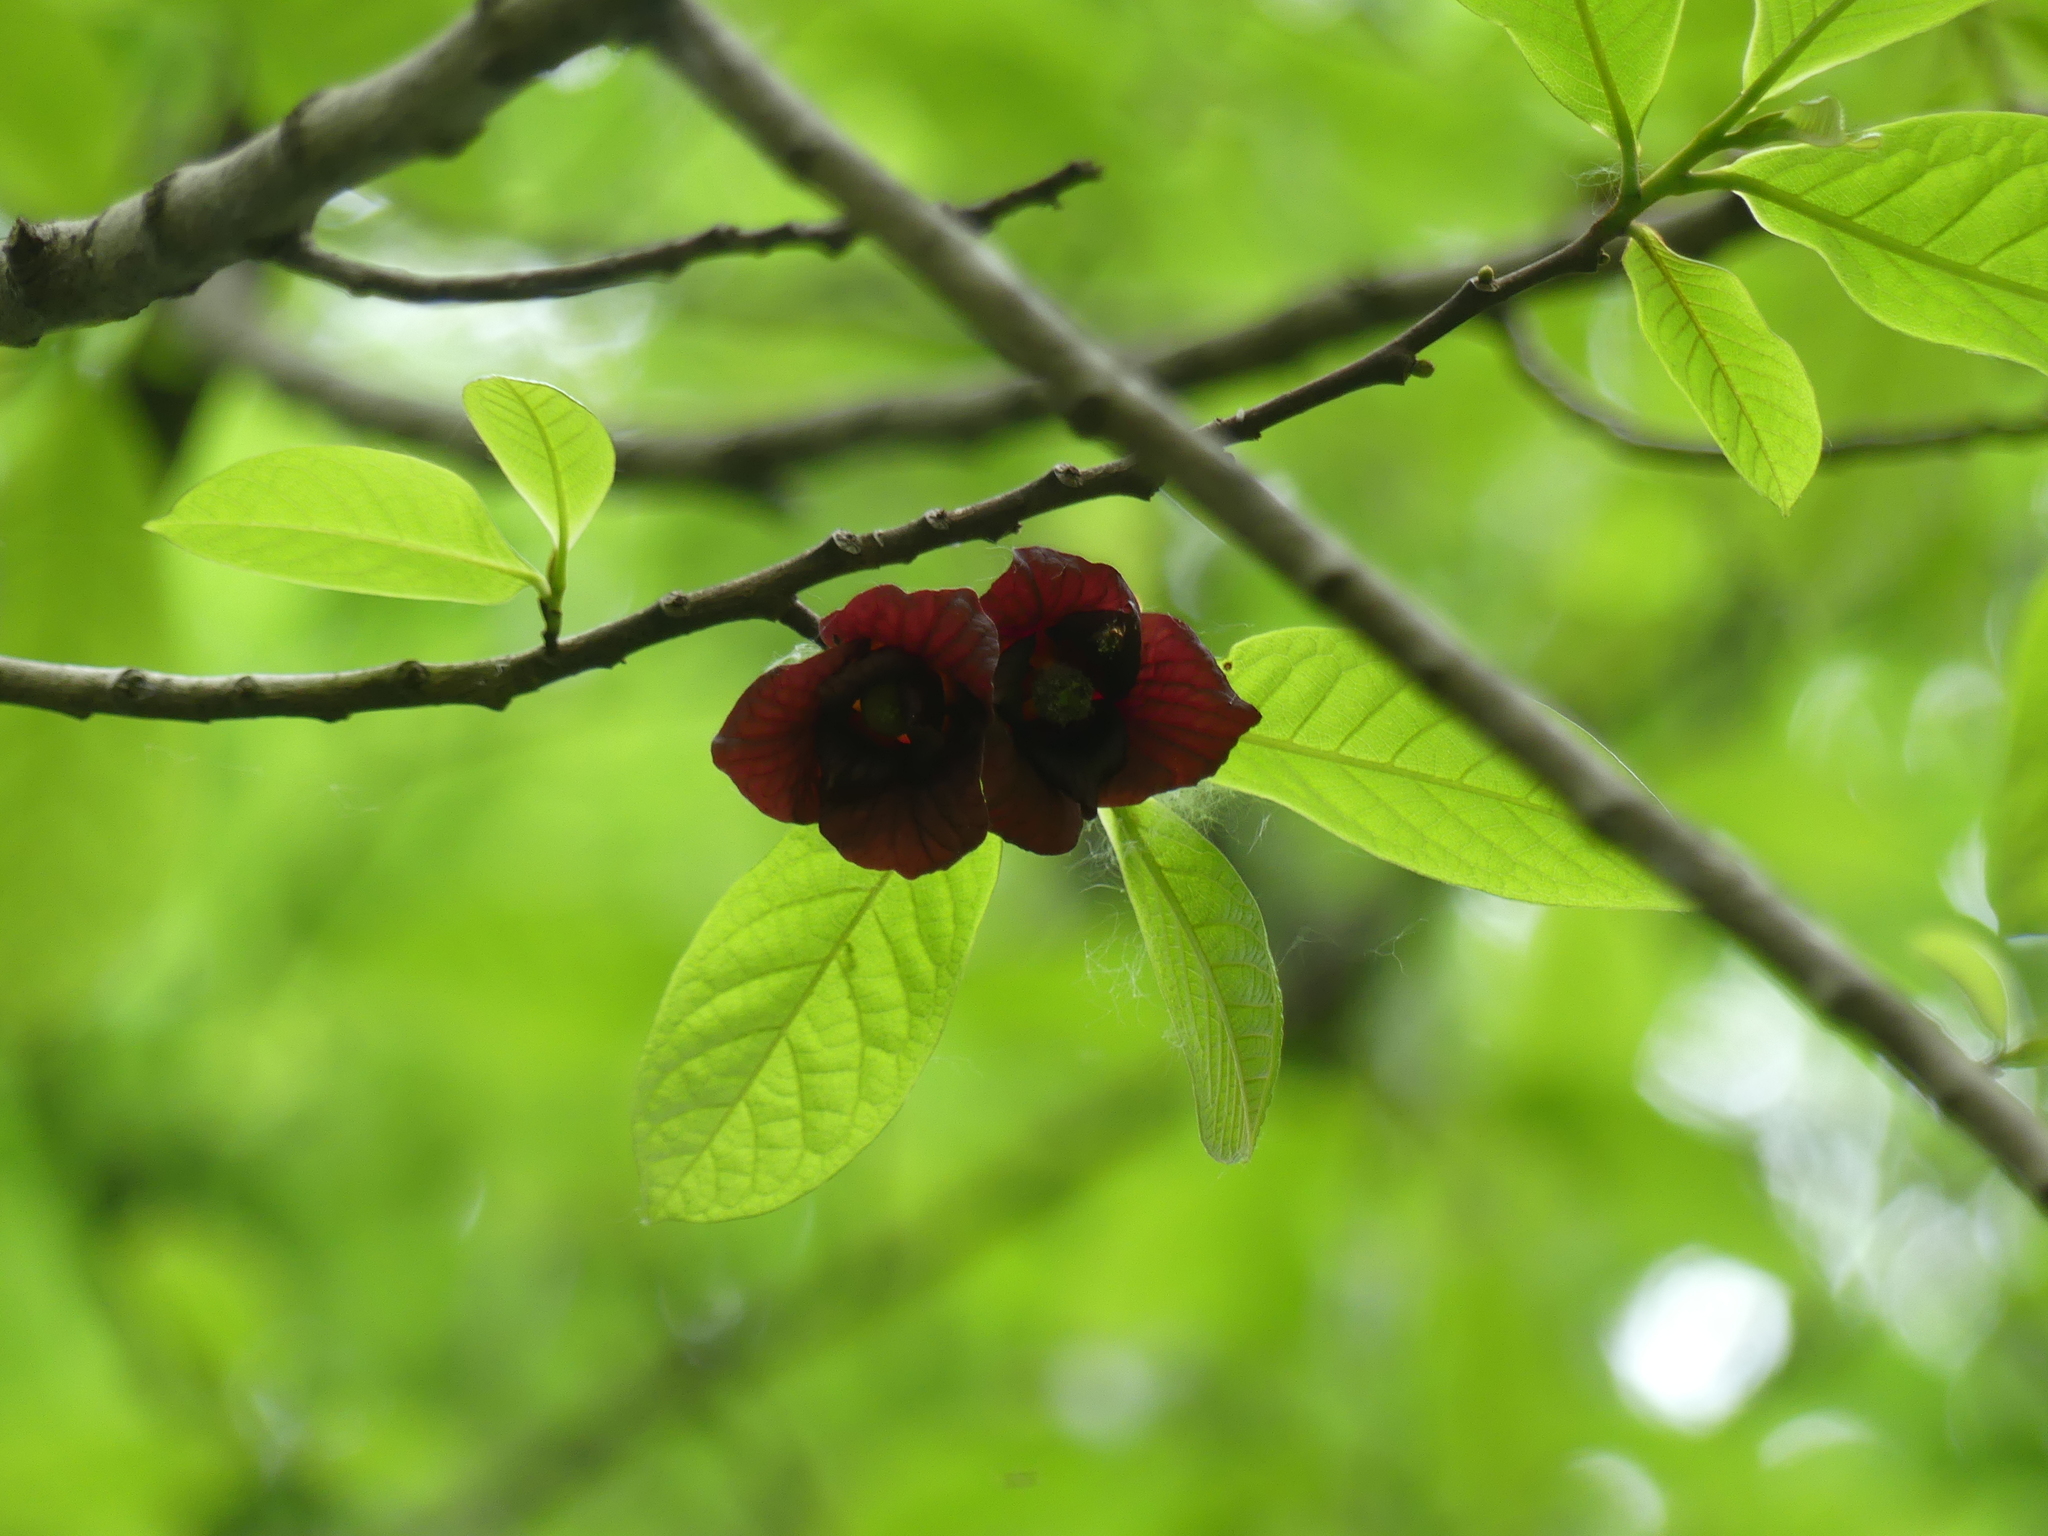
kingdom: Plantae
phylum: Tracheophyta
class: Magnoliopsida
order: Magnoliales
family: Annonaceae
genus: Asimina
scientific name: Asimina triloba
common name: Dog-banana
